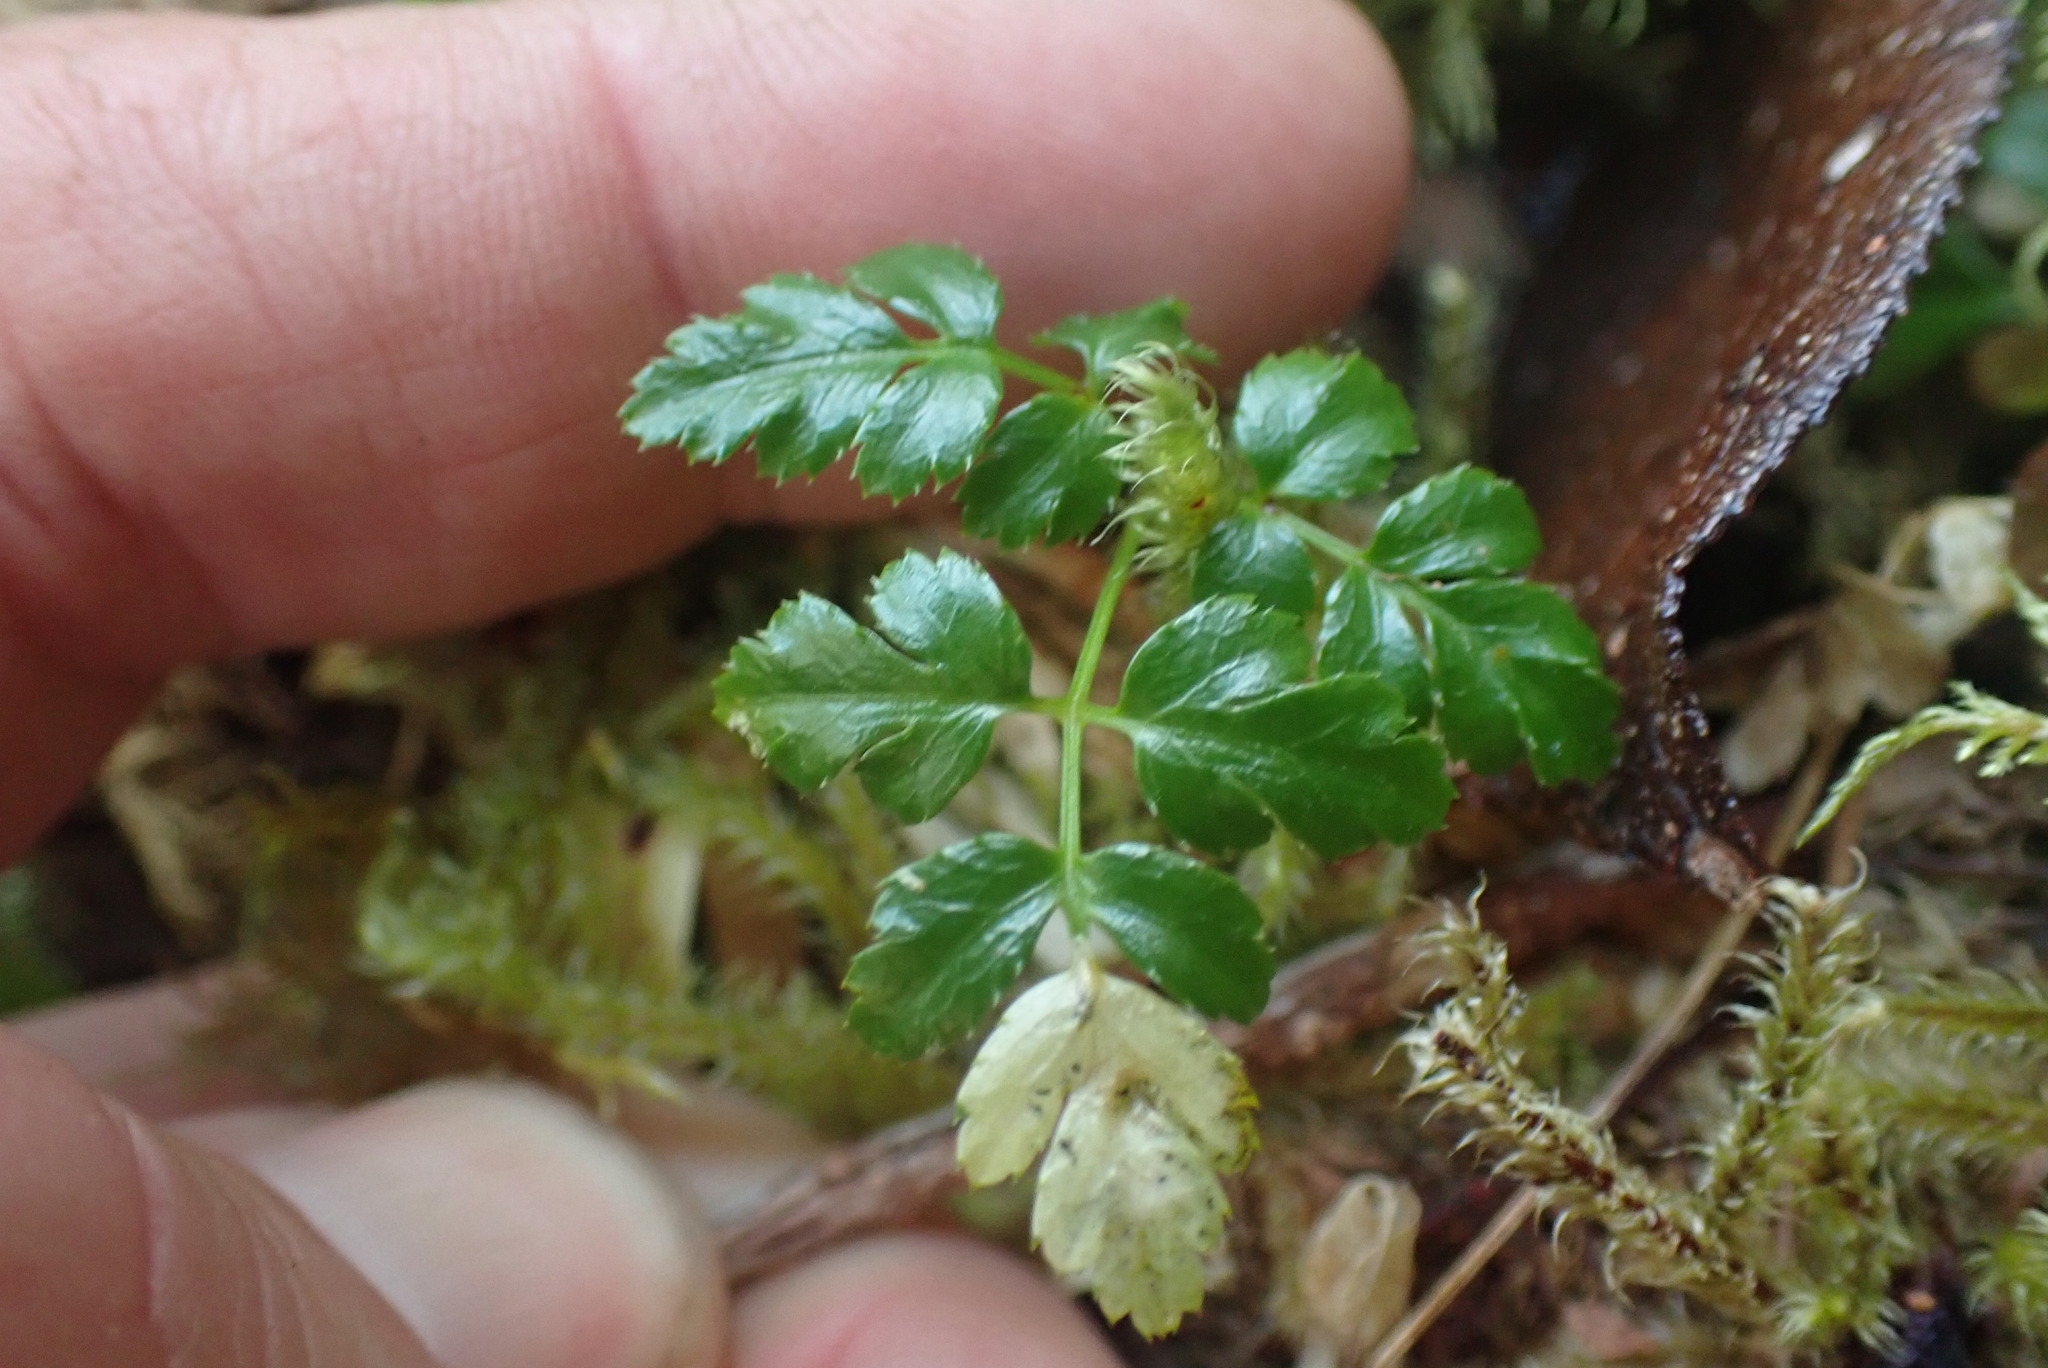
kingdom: Plantae
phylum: Tracheophyta
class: Magnoliopsida
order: Ranunculales
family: Ranunculaceae
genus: Coptis
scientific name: Coptis aspleniifolia
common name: Fern-leaved goldthread
